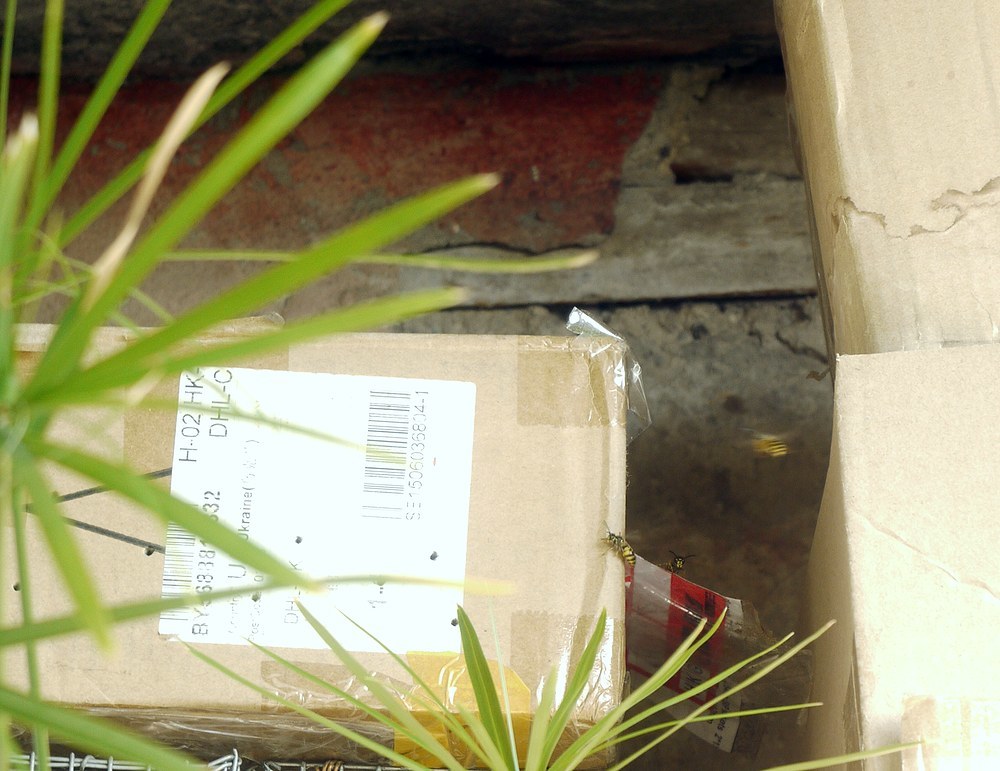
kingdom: Animalia
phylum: Arthropoda
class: Insecta
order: Hymenoptera
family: Vespidae
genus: Vespula
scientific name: Vespula vulgaris
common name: Common wasp
